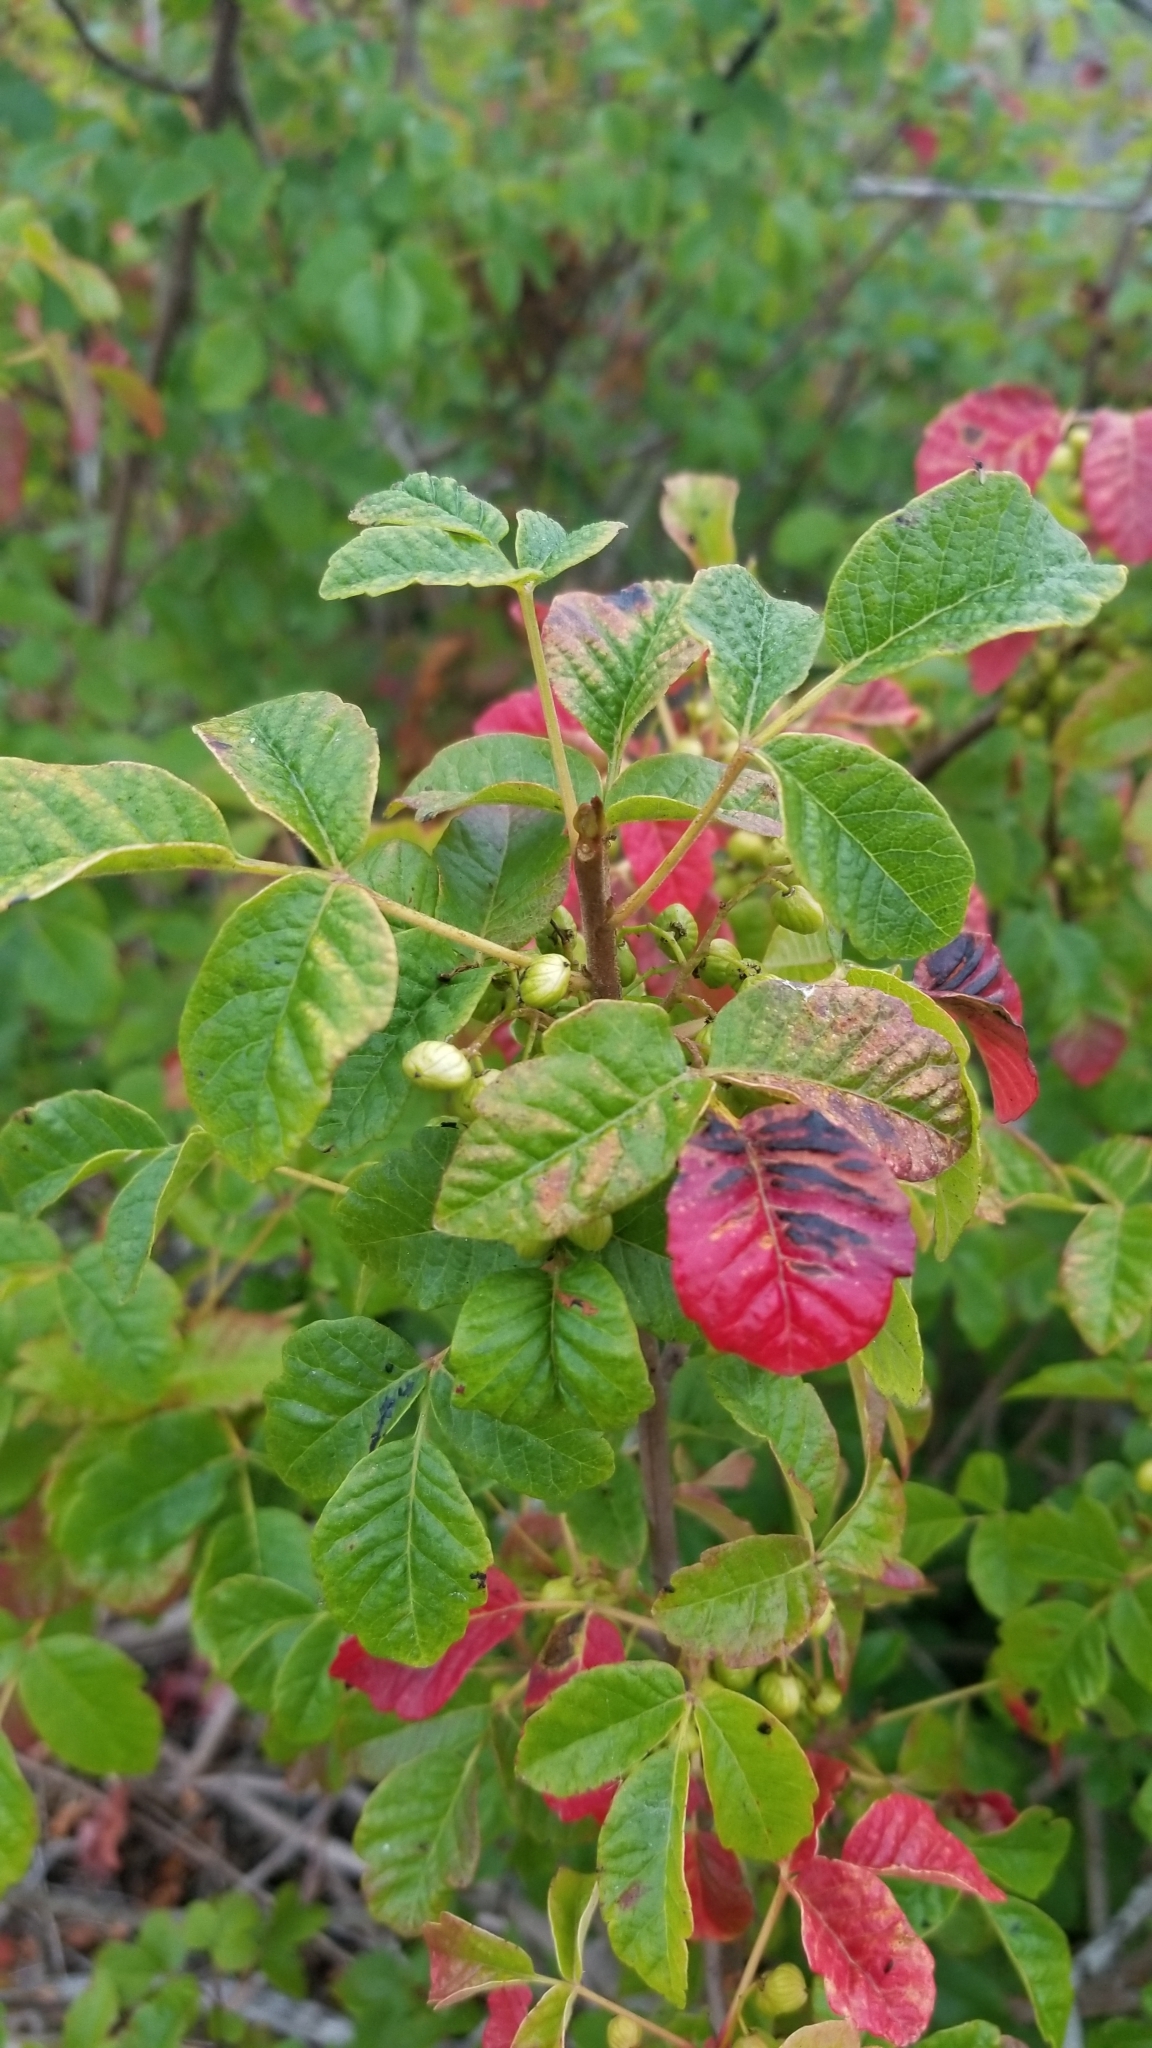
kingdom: Plantae
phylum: Tracheophyta
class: Magnoliopsida
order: Sapindales
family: Anacardiaceae
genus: Toxicodendron
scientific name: Toxicodendron diversilobum
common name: Pacific poison-oak
